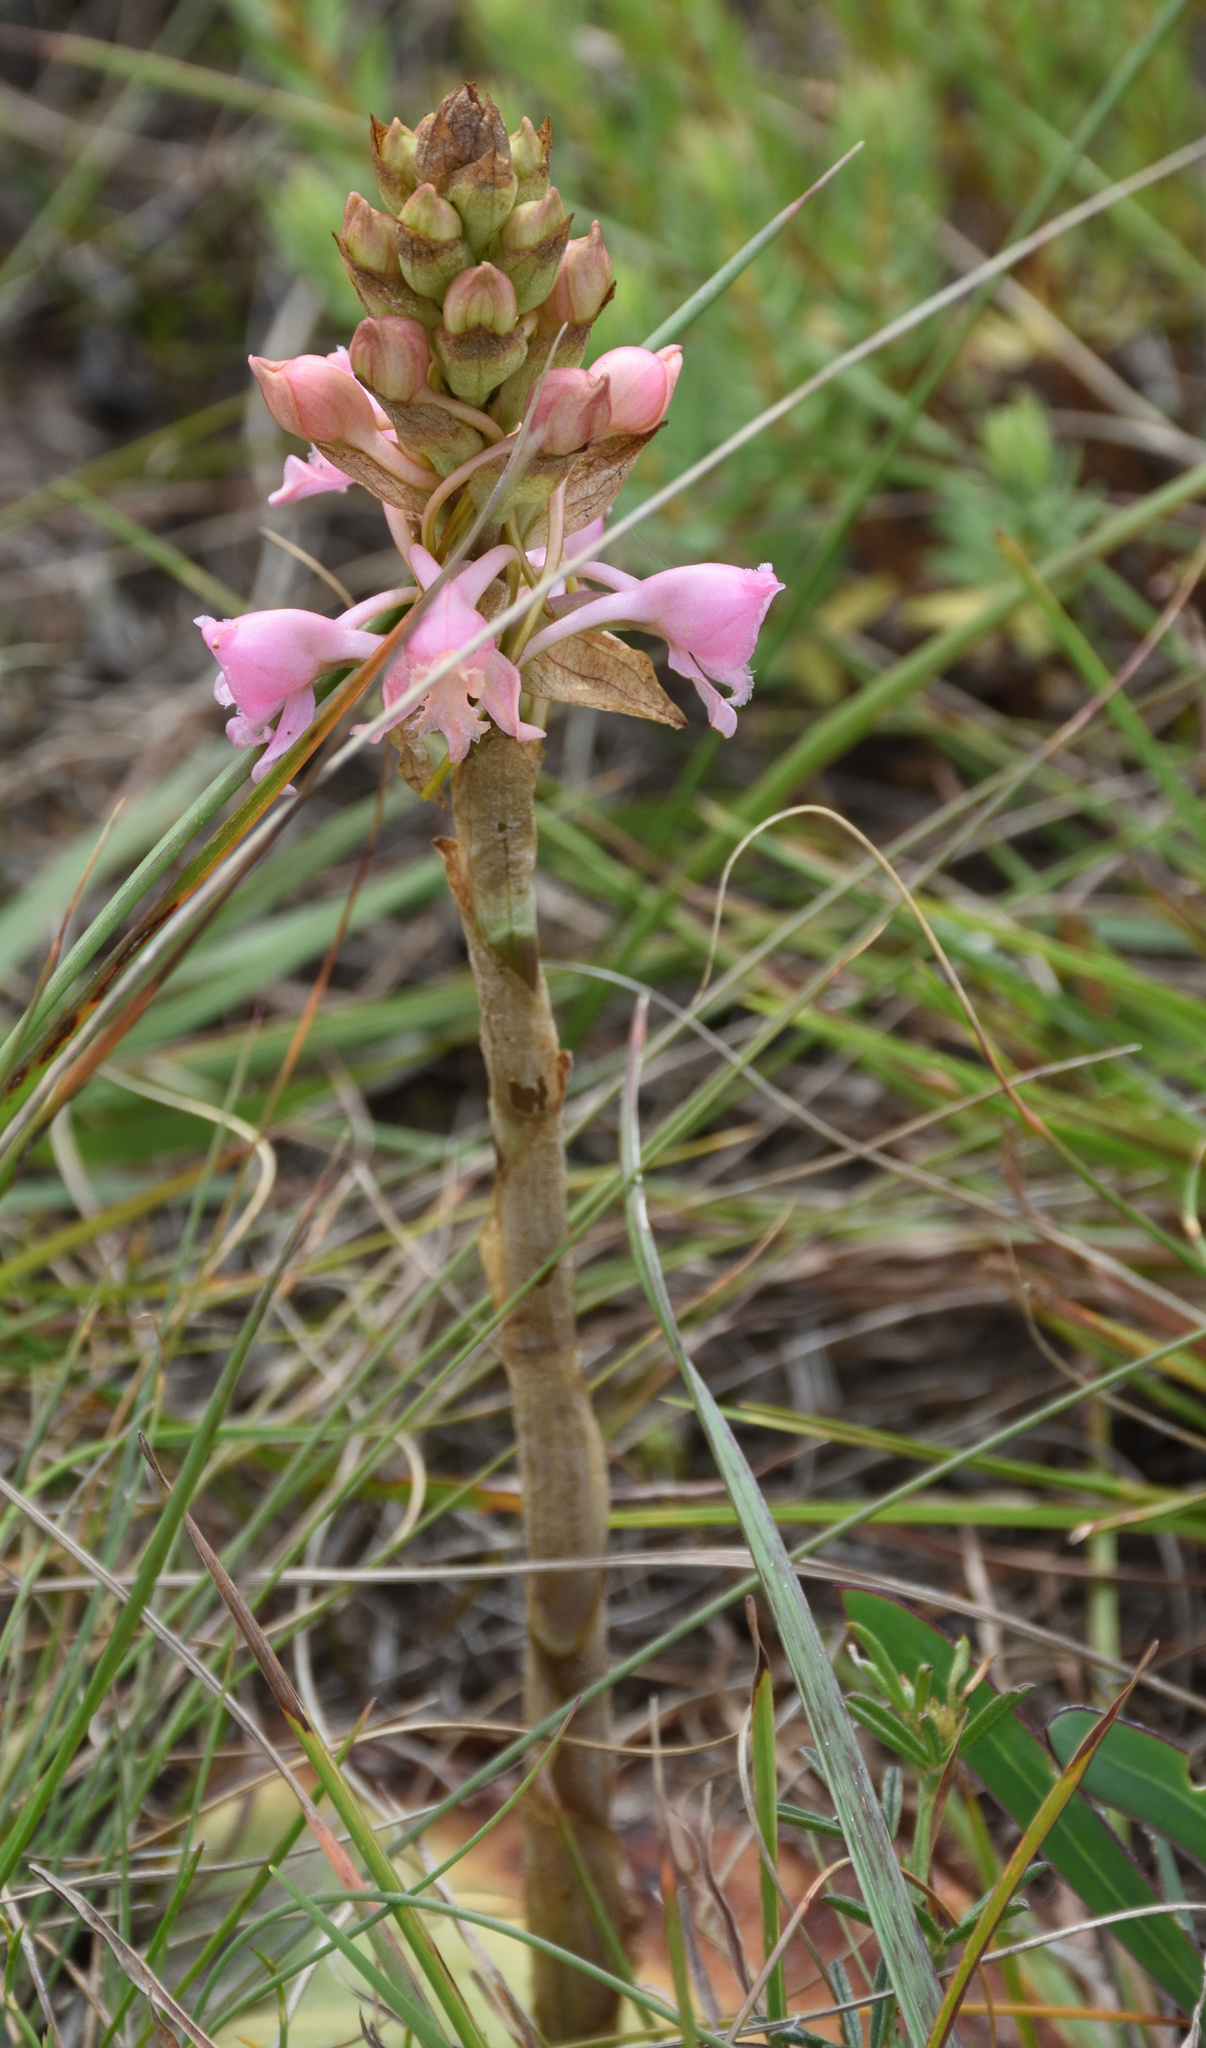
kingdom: Plantae
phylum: Tracheophyta
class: Liliopsida
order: Asparagales
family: Orchidaceae
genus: Satyrium
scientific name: Satyrium membranaceum
